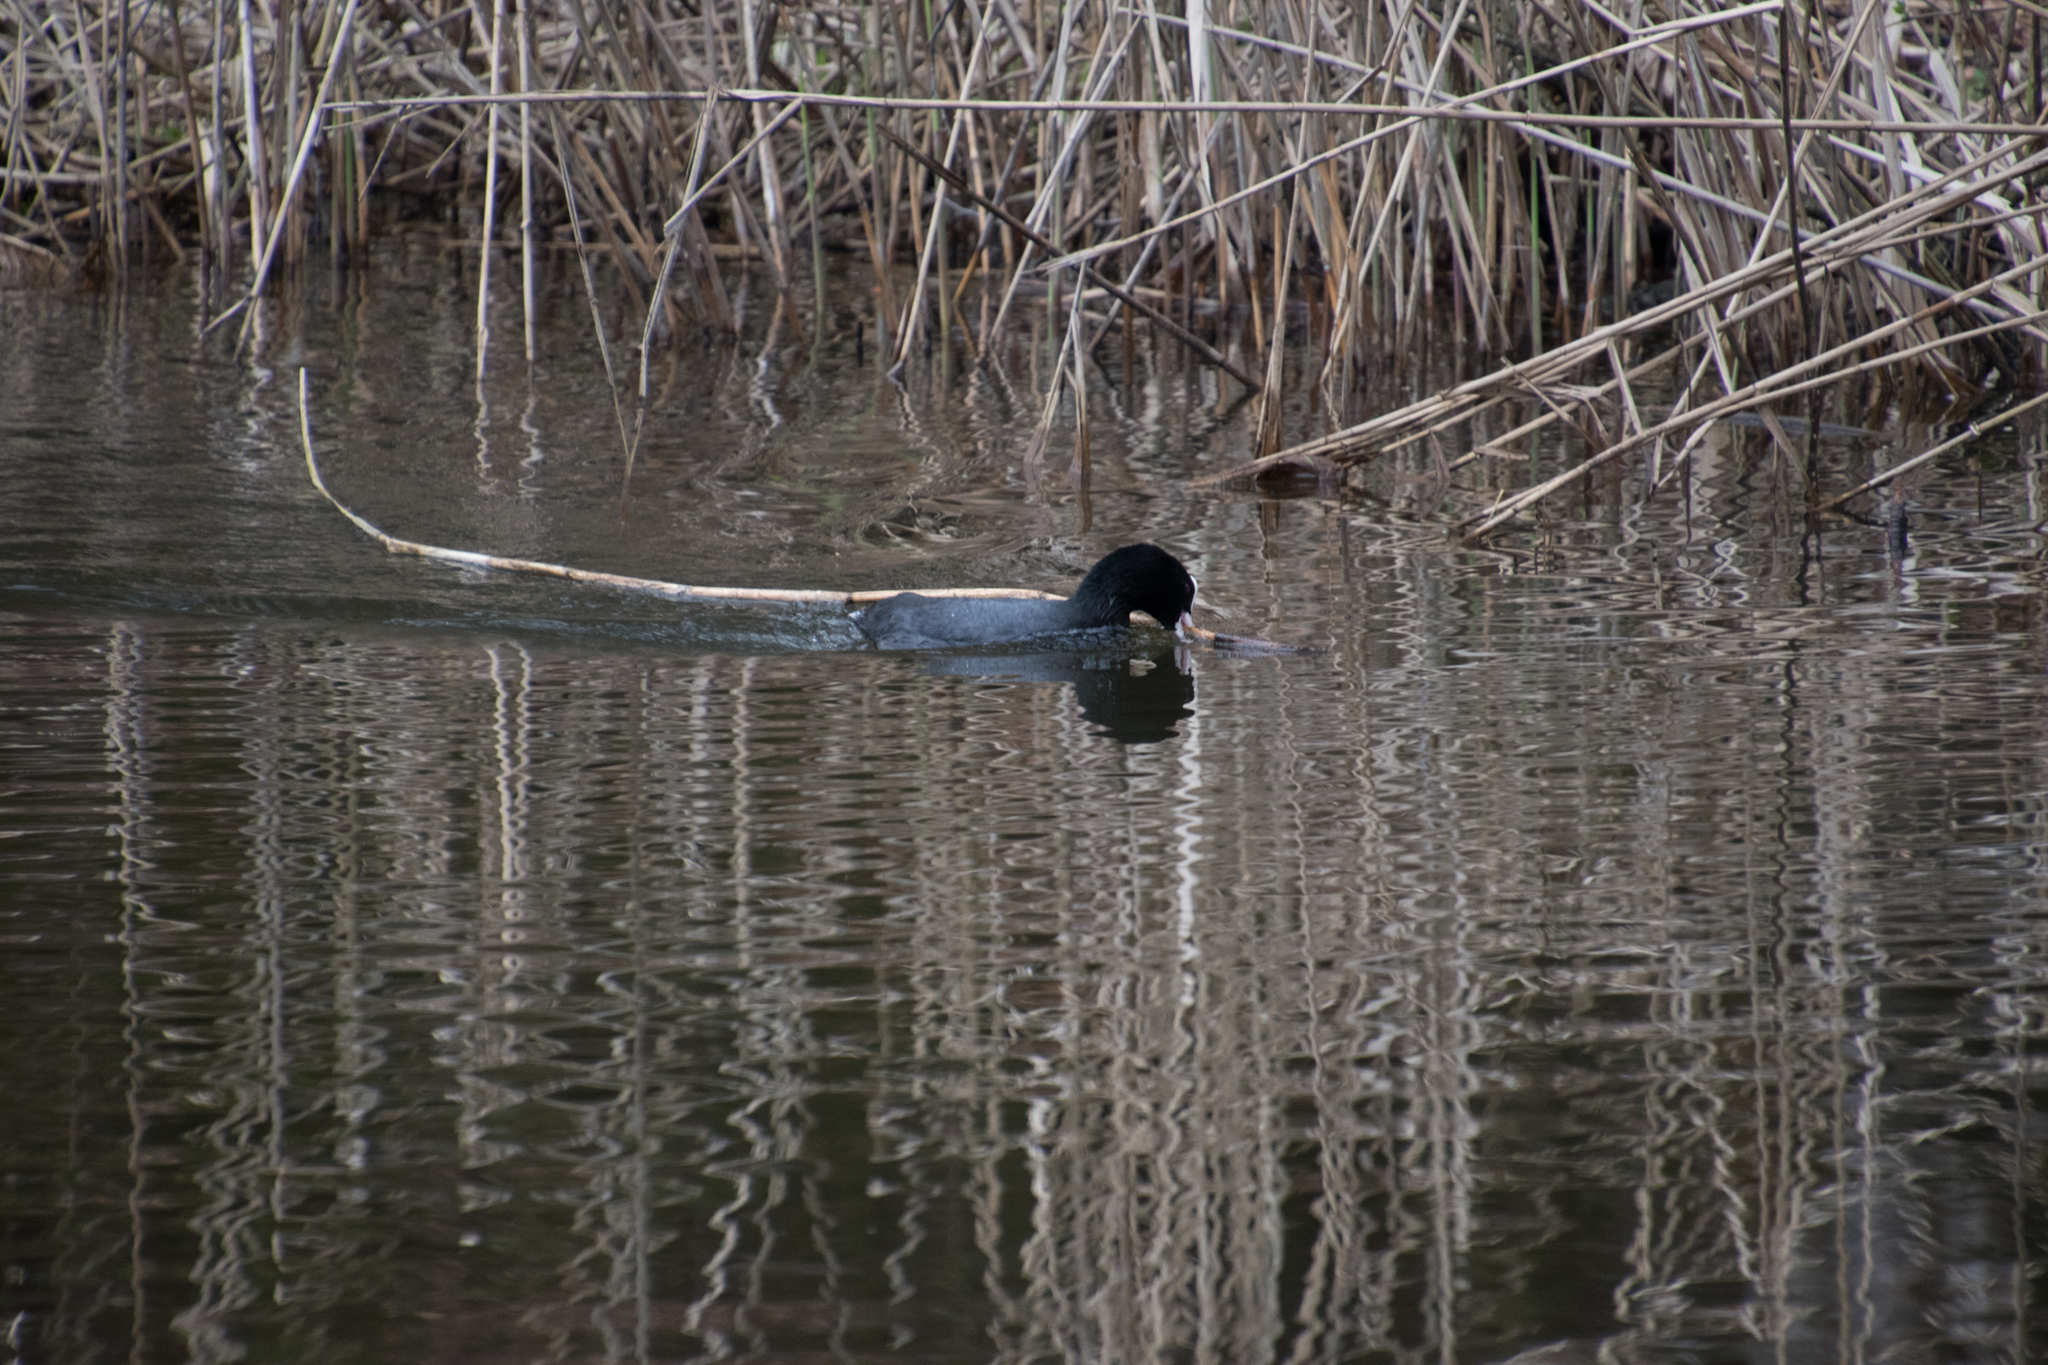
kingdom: Animalia
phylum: Chordata
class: Aves
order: Gruiformes
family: Rallidae
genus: Fulica
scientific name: Fulica atra
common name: Eurasian coot
